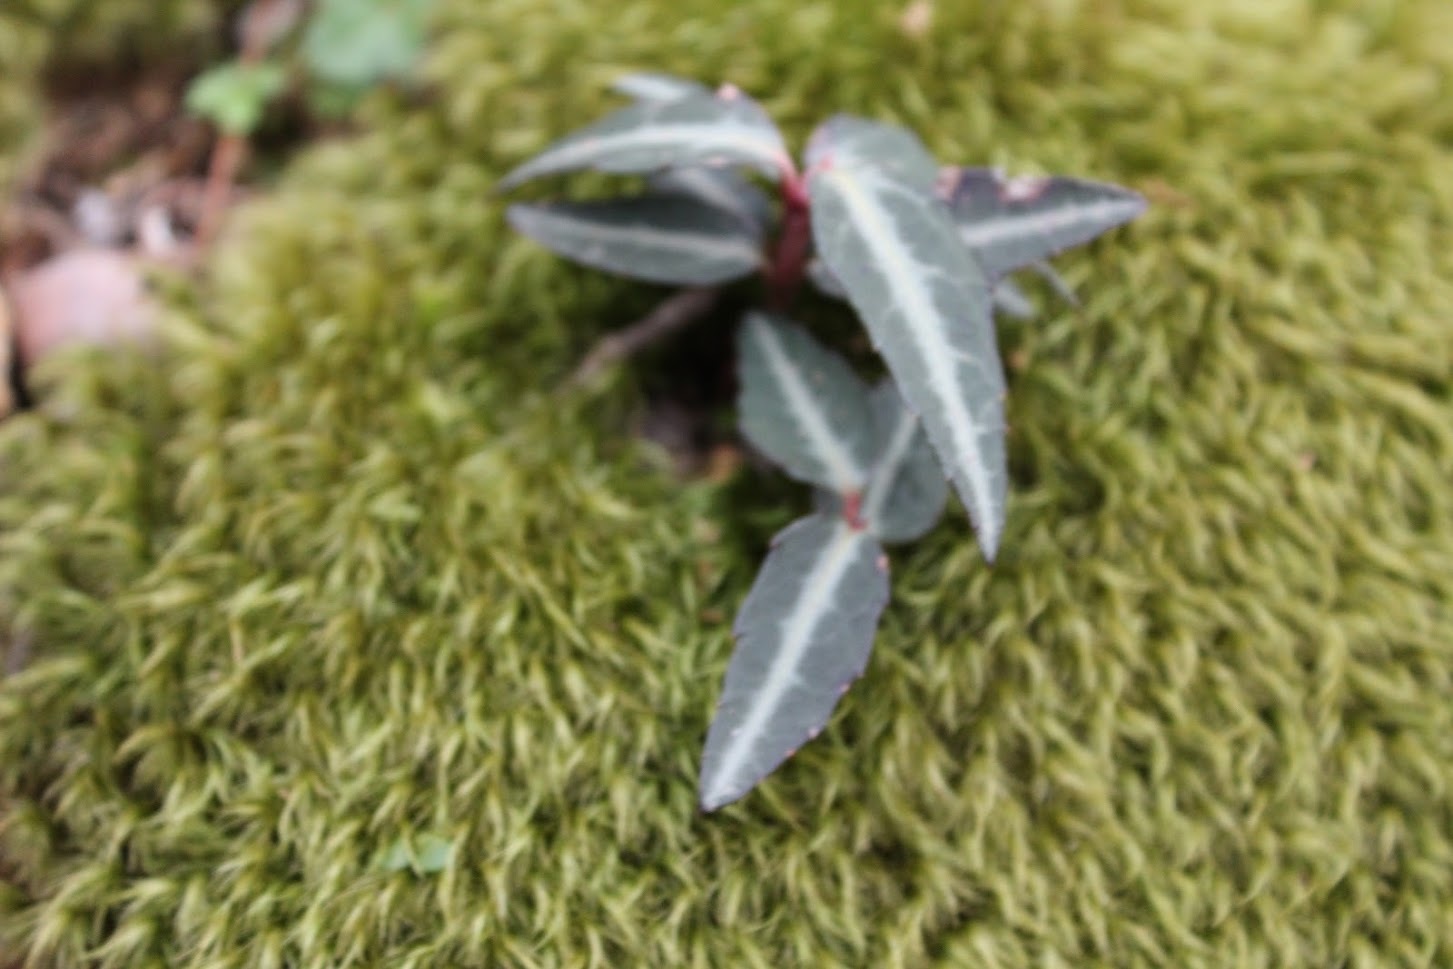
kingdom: Plantae
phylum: Tracheophyta
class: Magnoliopsida
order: Ericales
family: Ericaceae
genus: Chimaphila
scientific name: Chimaphila maculata
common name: Spotted pipsissewa
